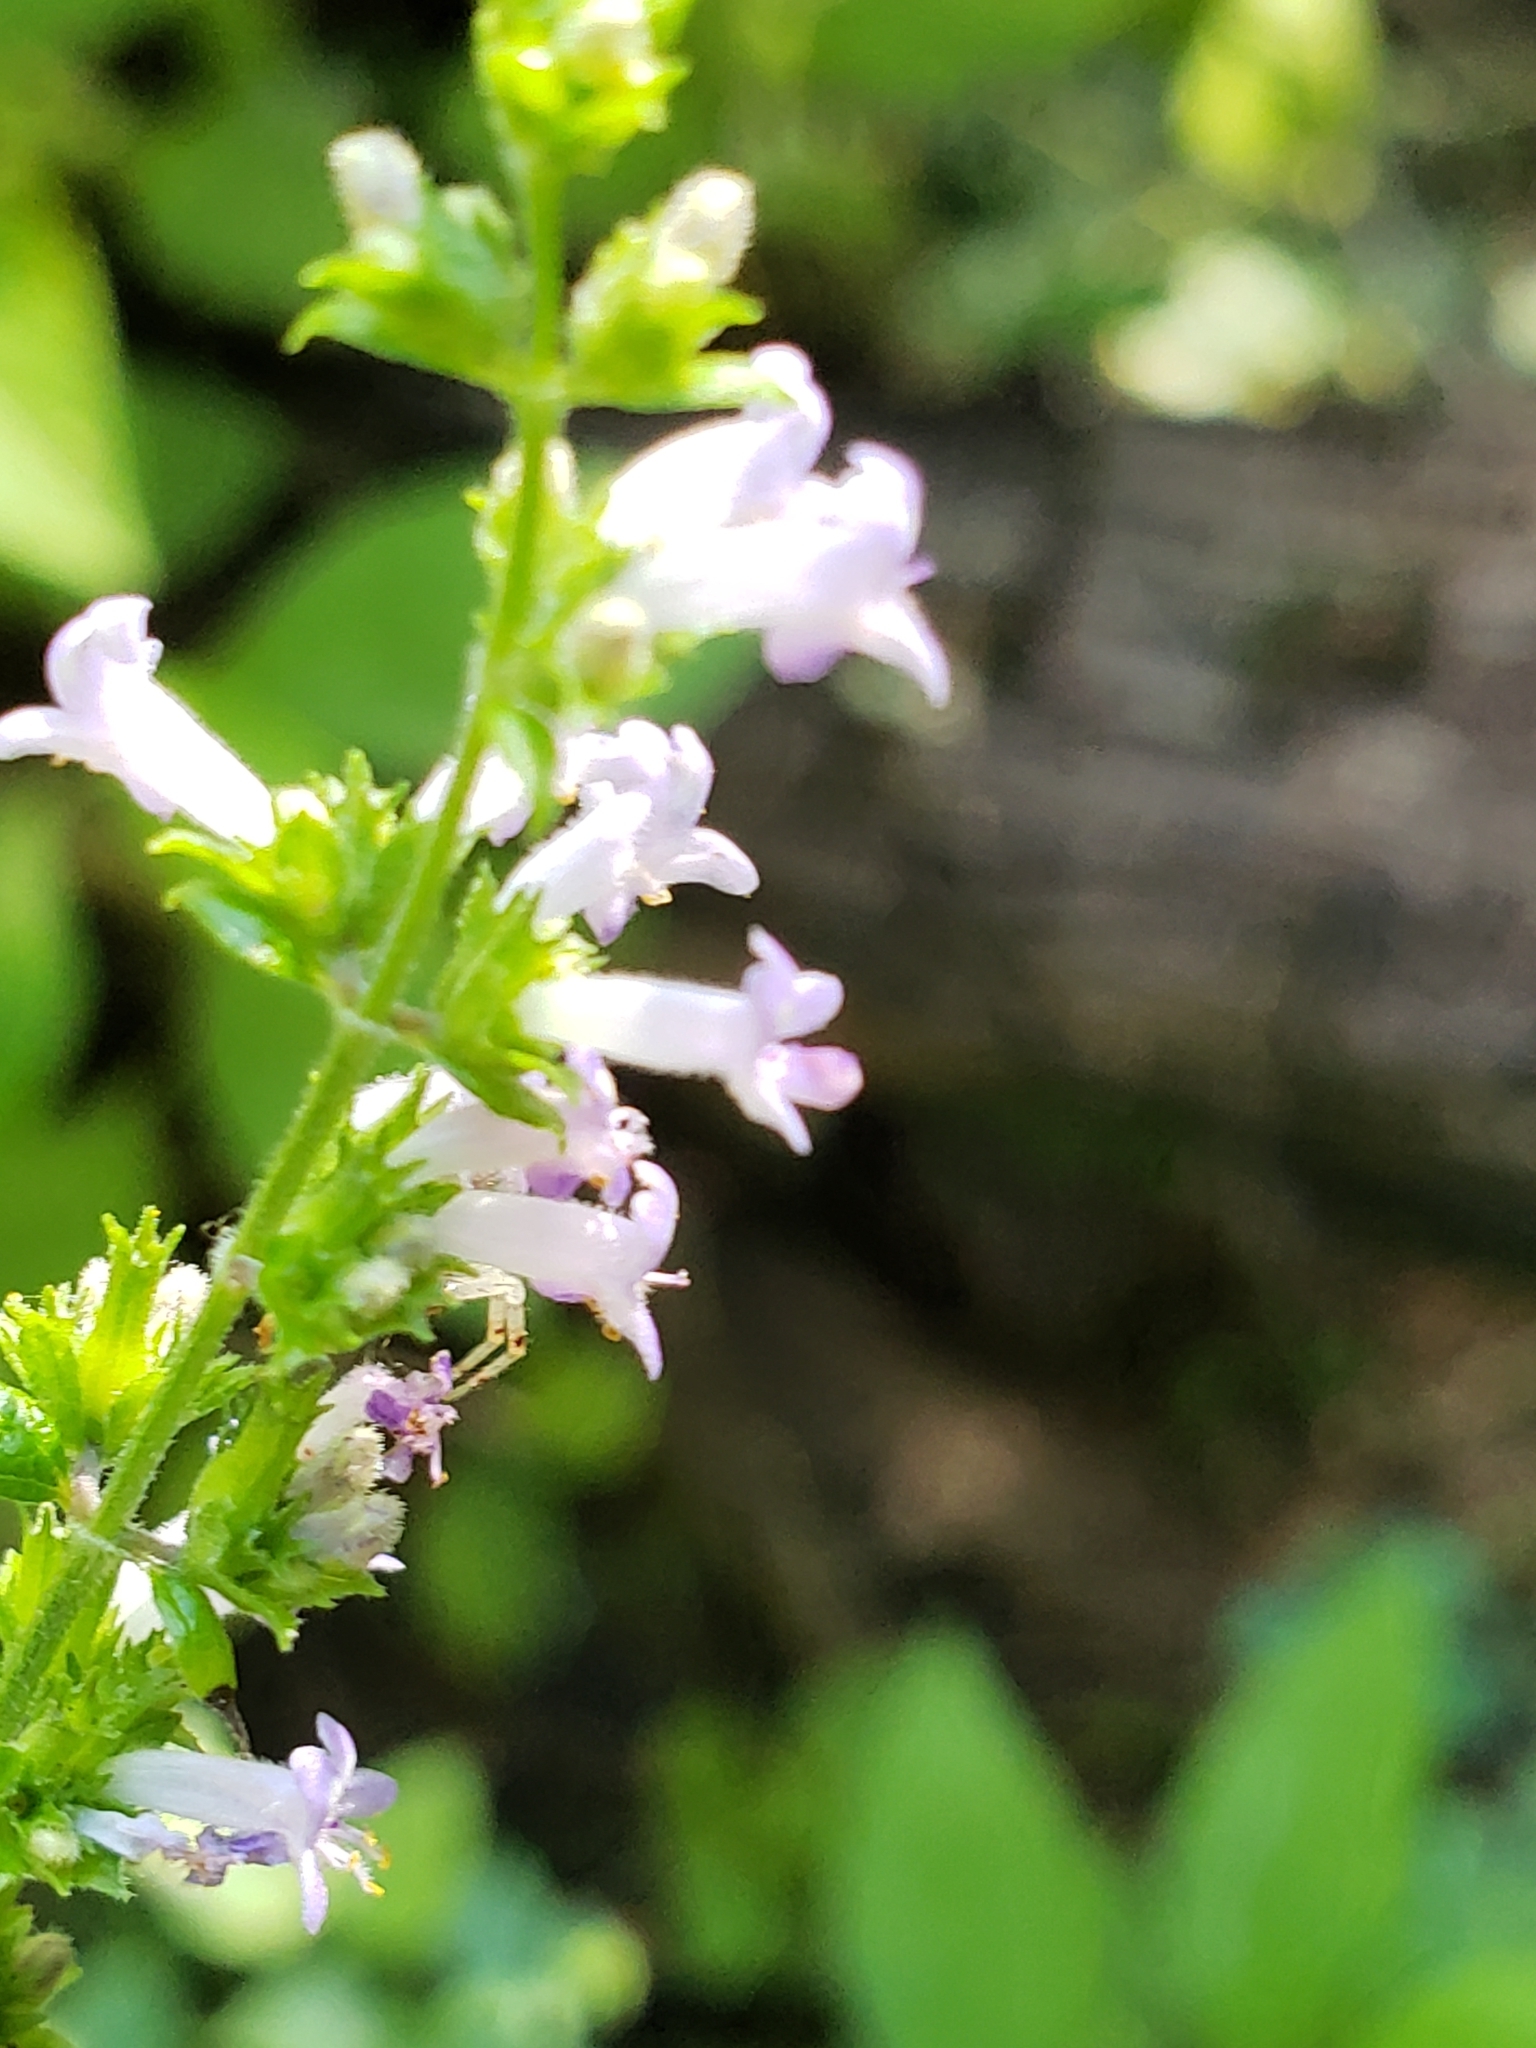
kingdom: Plantae
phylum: Tracheophyta
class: Magnoliopsida
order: Lamiales
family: Lamiaceae
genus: Cantinoa
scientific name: Cantinoa mutabilis
